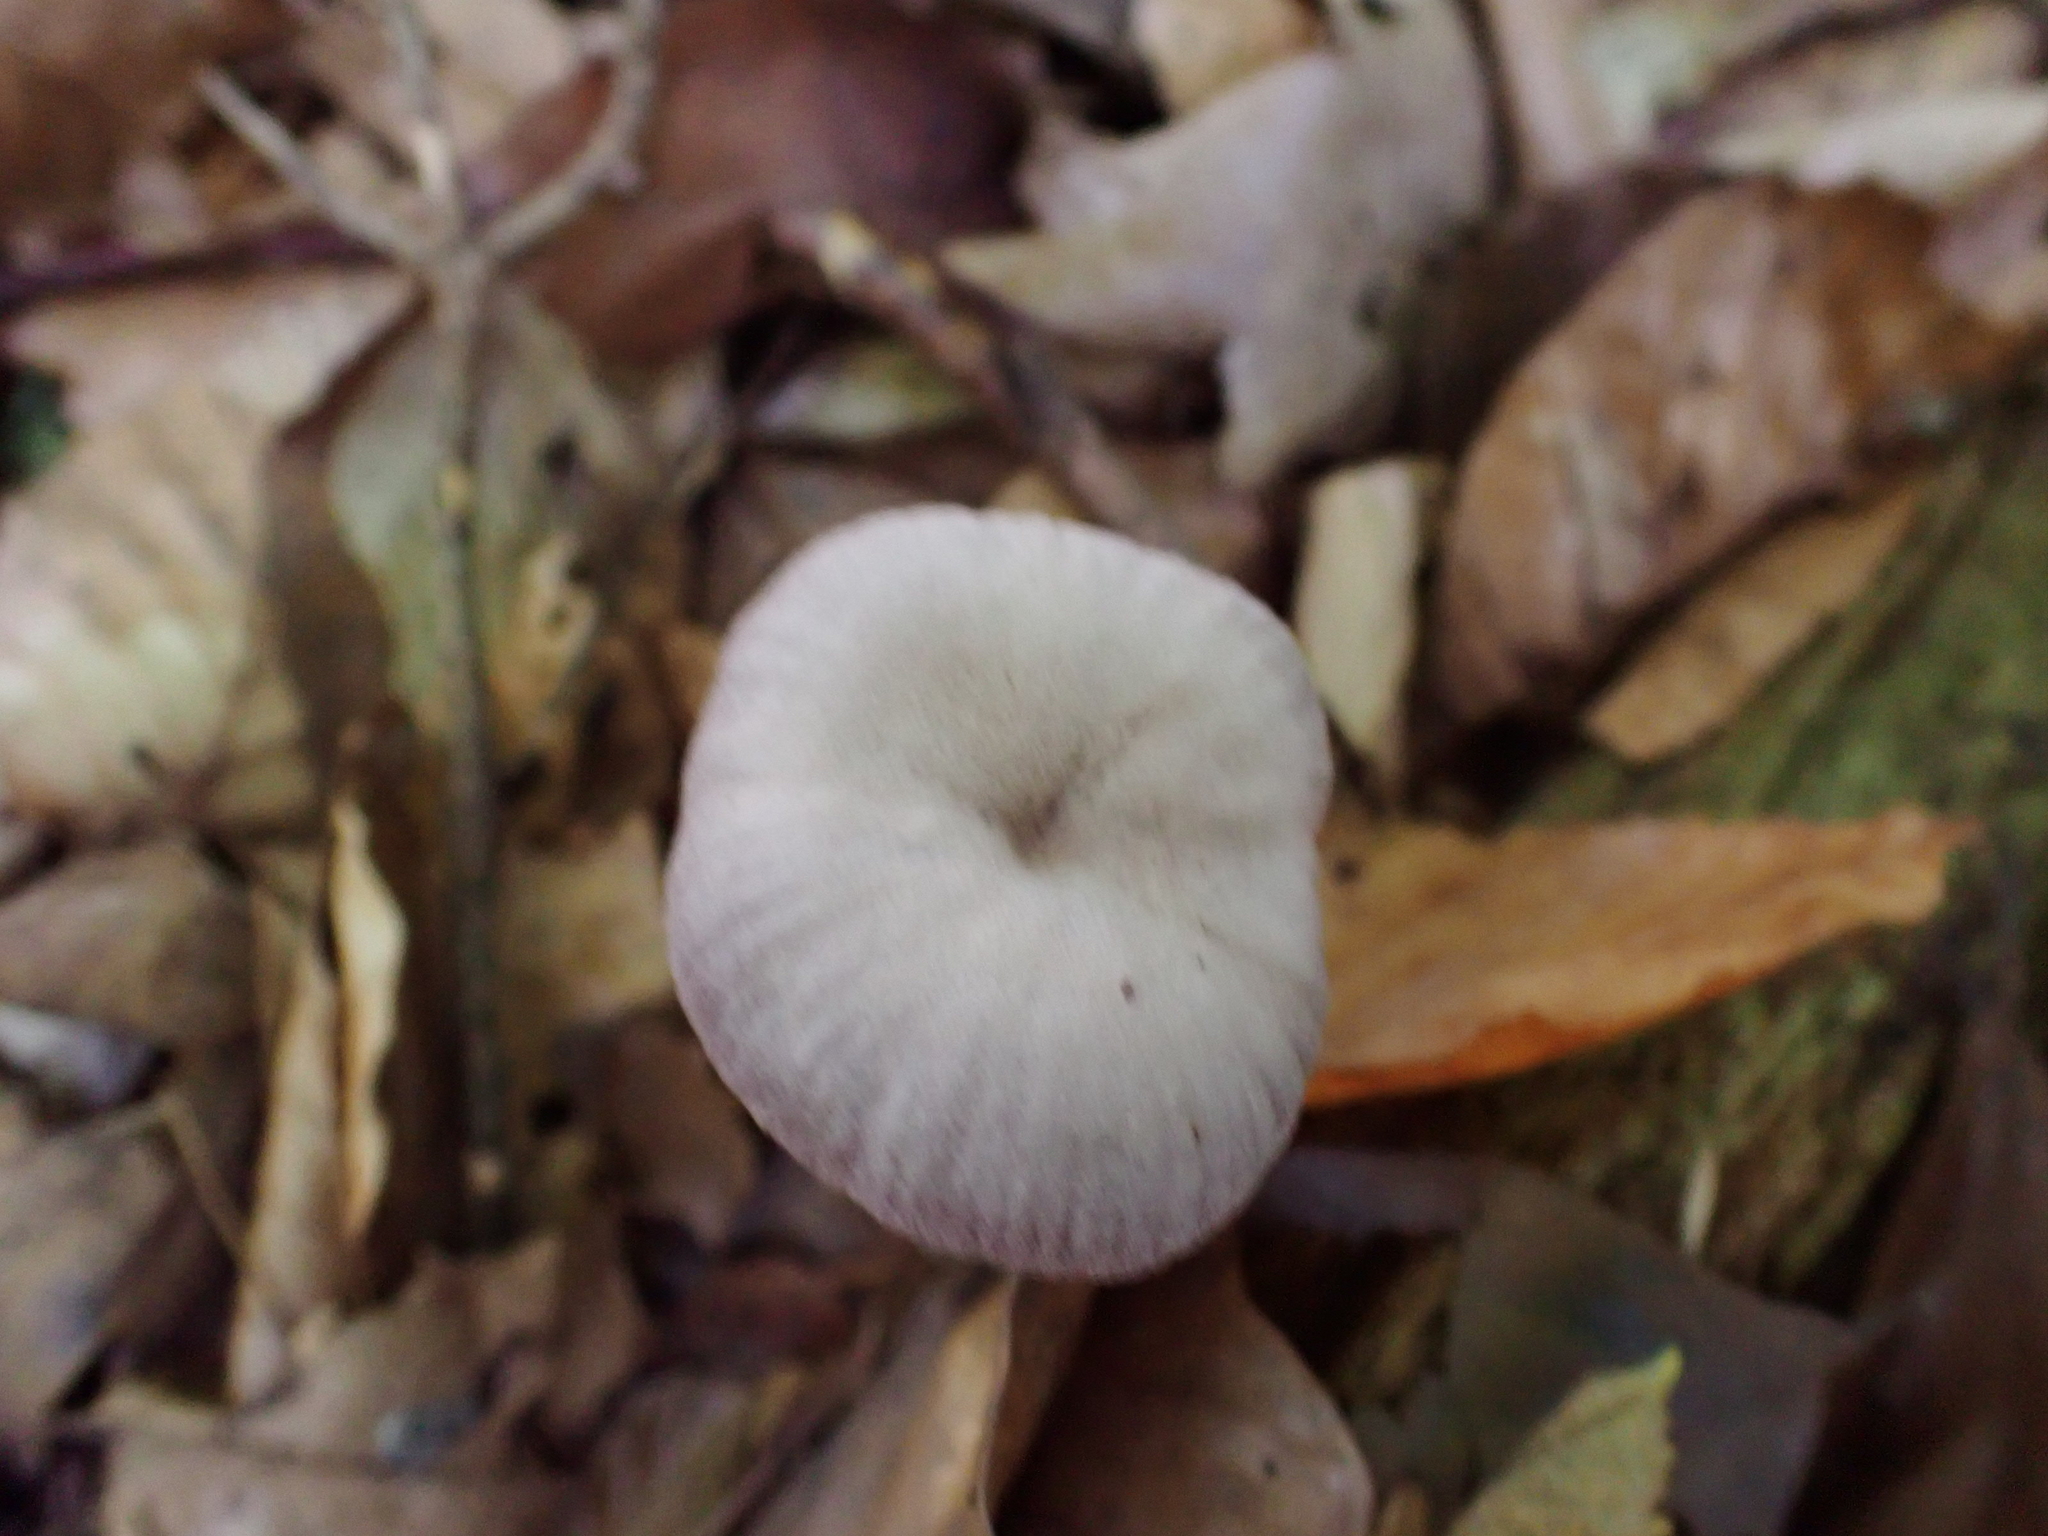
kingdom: Fungi
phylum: Basidiomycota
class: Agaricomycetes
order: Agaricales
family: Hydnangiaceae
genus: Laccaria
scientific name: Laccaria amethystina
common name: Amethyst deceiver
